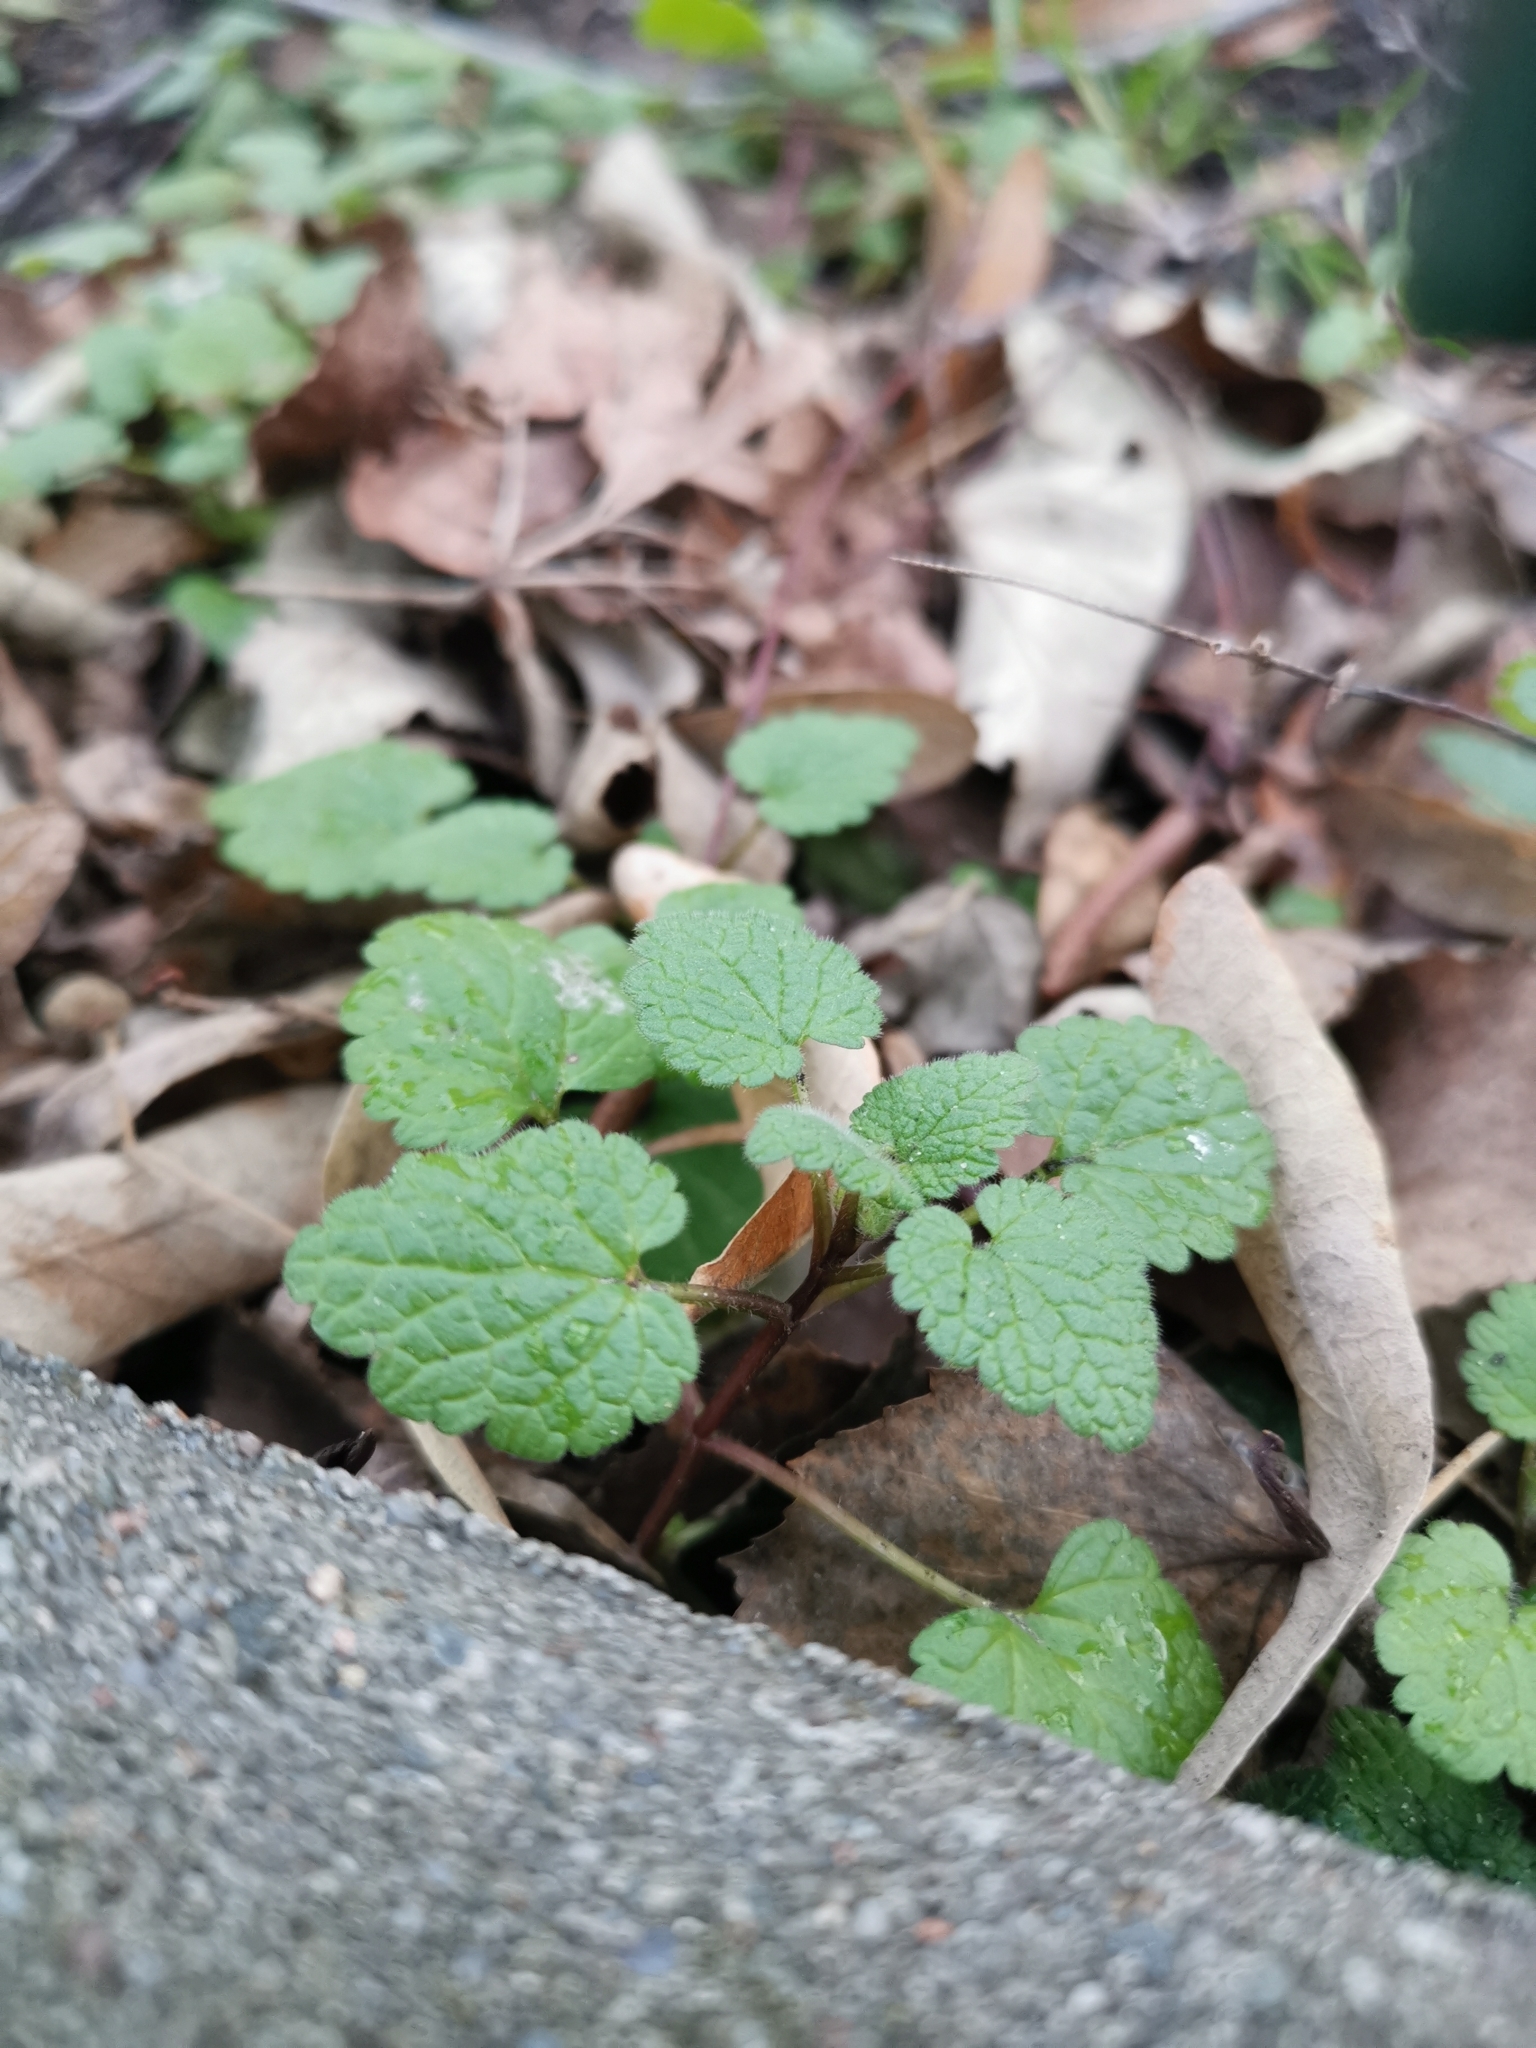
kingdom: Plantae
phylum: Tracheophyta
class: Magnoliopsida
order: Lamiales
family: Lamiaceae
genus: Lamium
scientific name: Lamium purpureum
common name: Red dead-nettle
